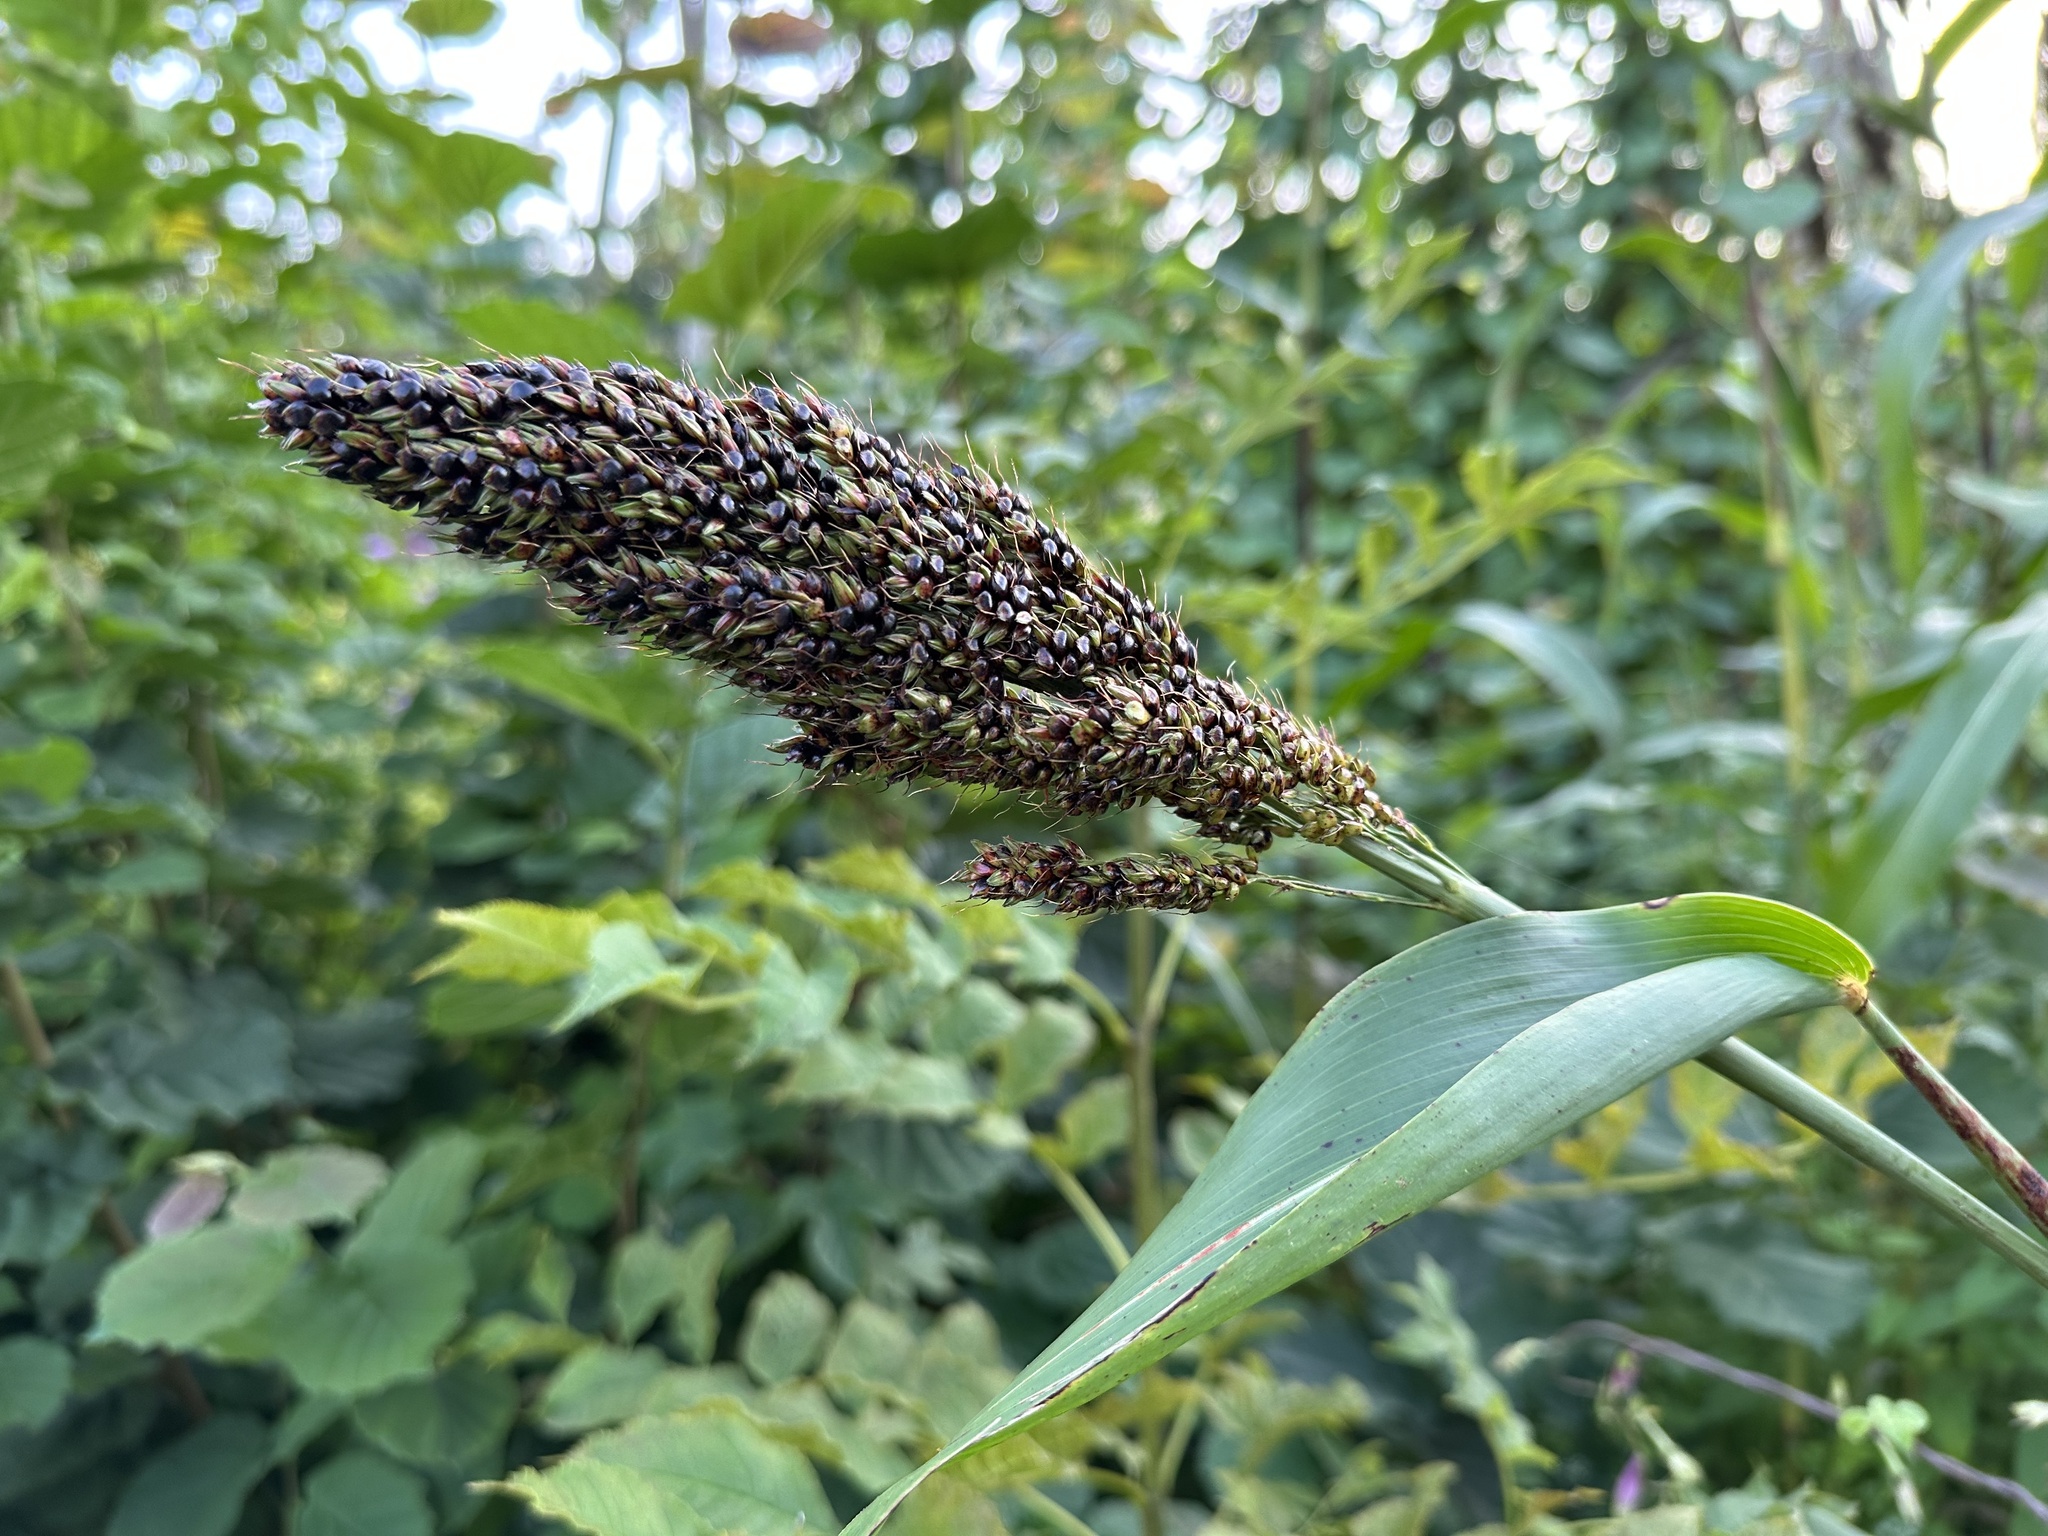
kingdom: Plantae
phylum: Tracheophyta
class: Liliopsida
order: Poales
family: Poaceae
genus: Sorghum
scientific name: Sorghum bicolor
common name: Sorghum
